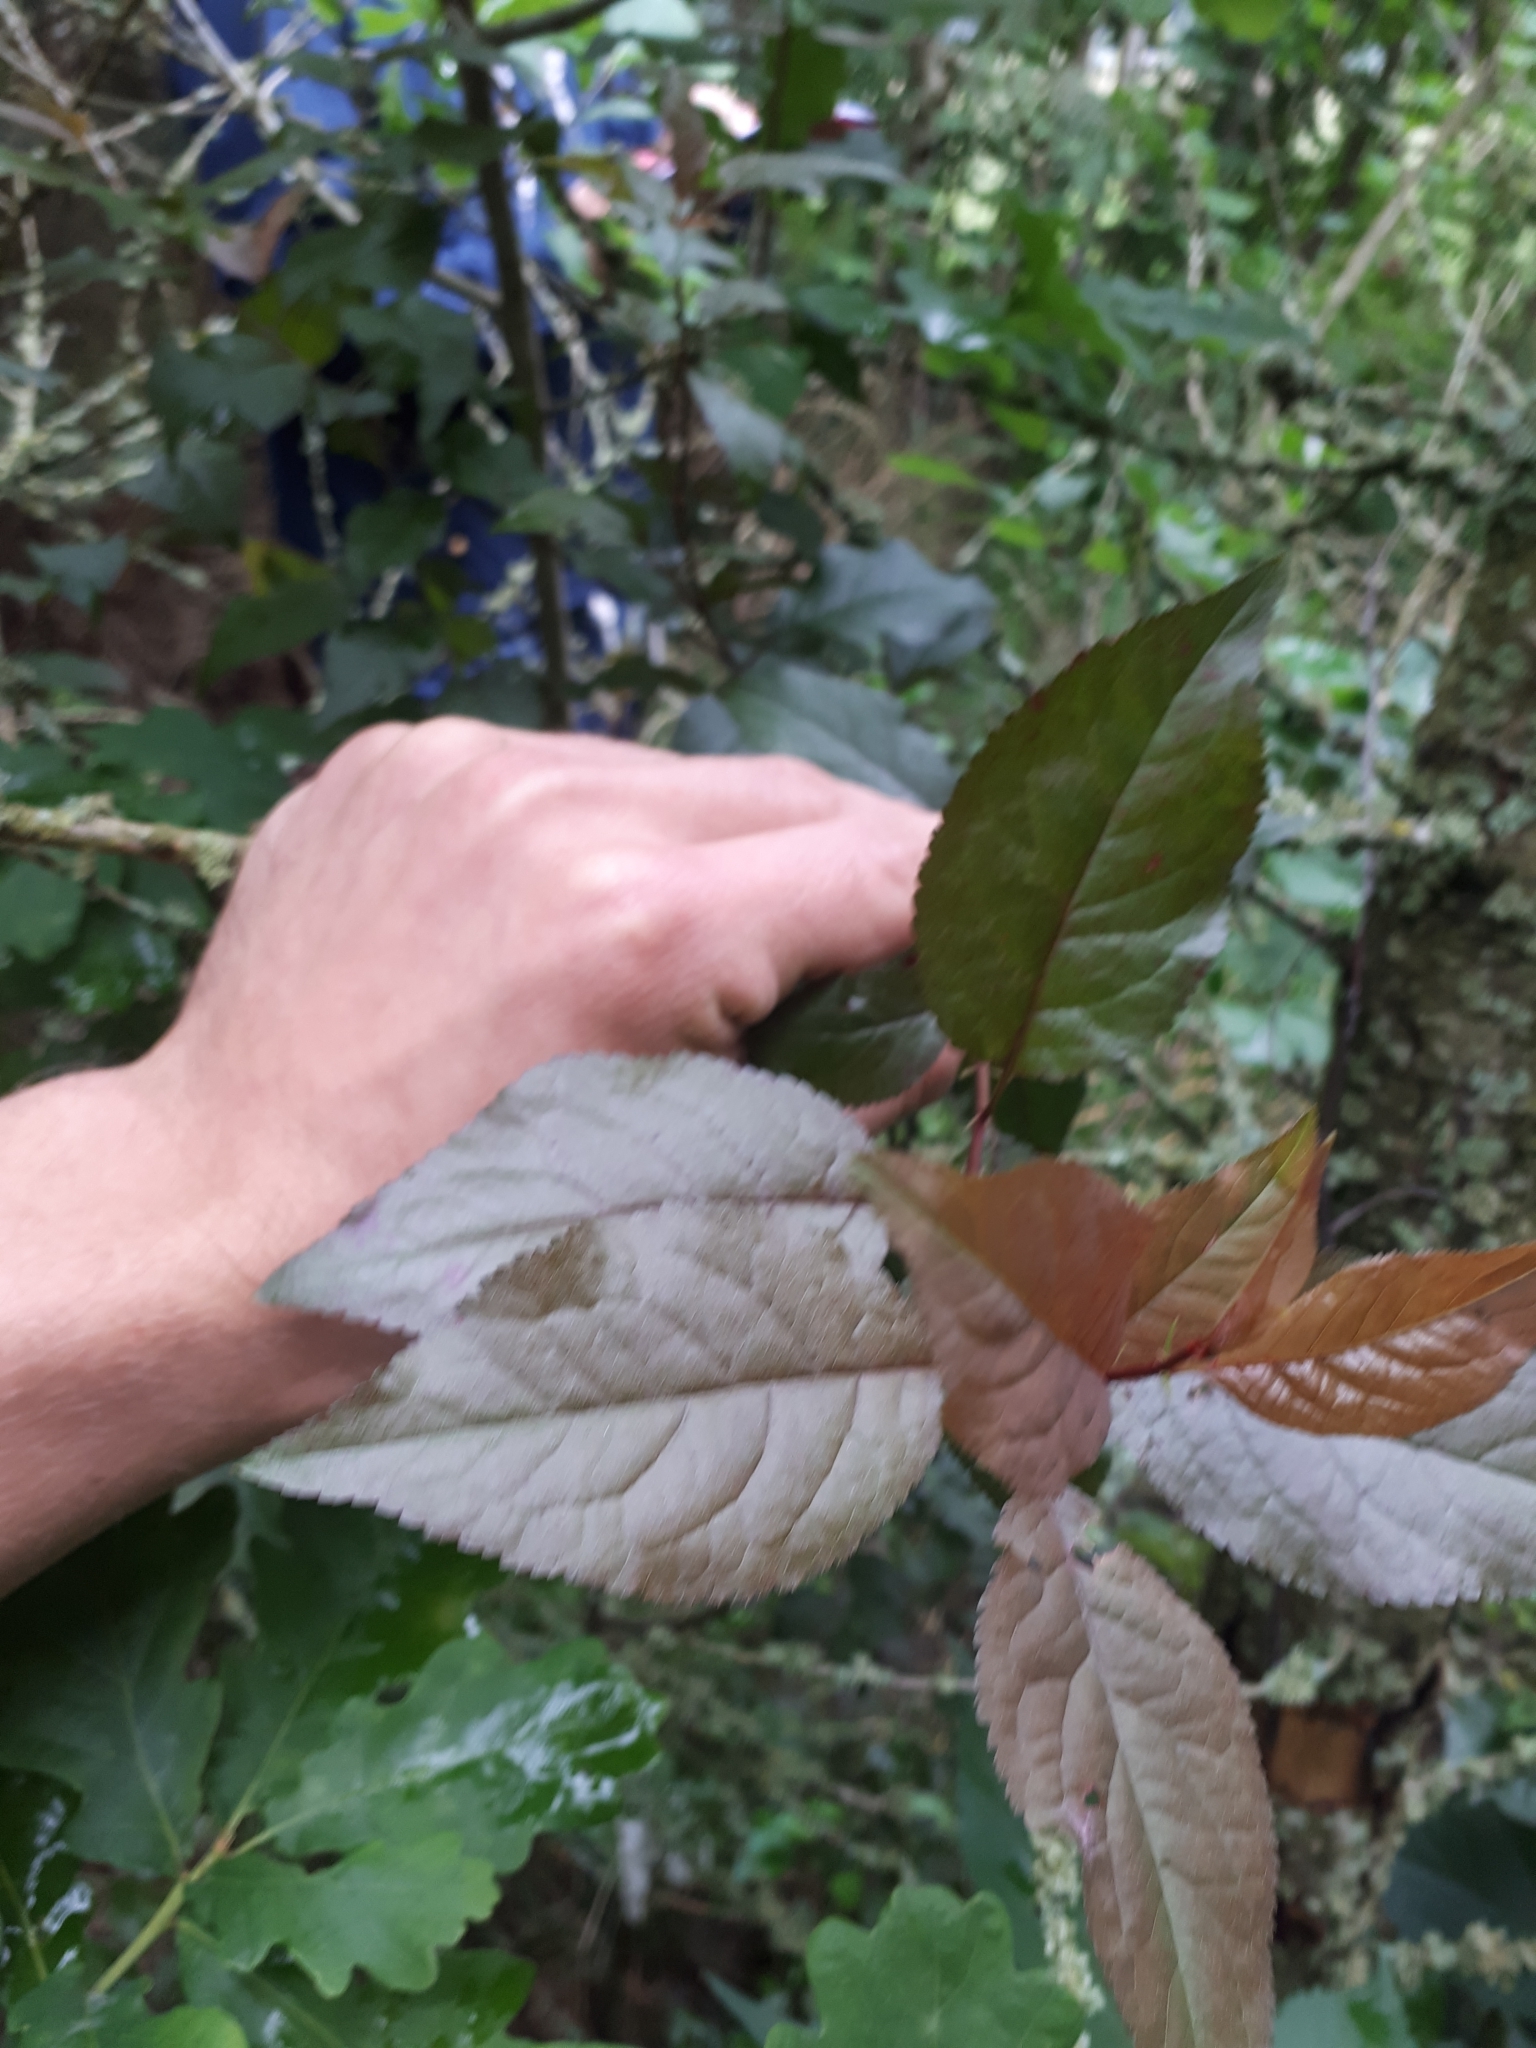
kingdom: Plantae
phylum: Tracheophyta
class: Magnoliopsida
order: Rosales
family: Rosaceae
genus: Prunus
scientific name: Prunus cerasifera
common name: Cherry plum
